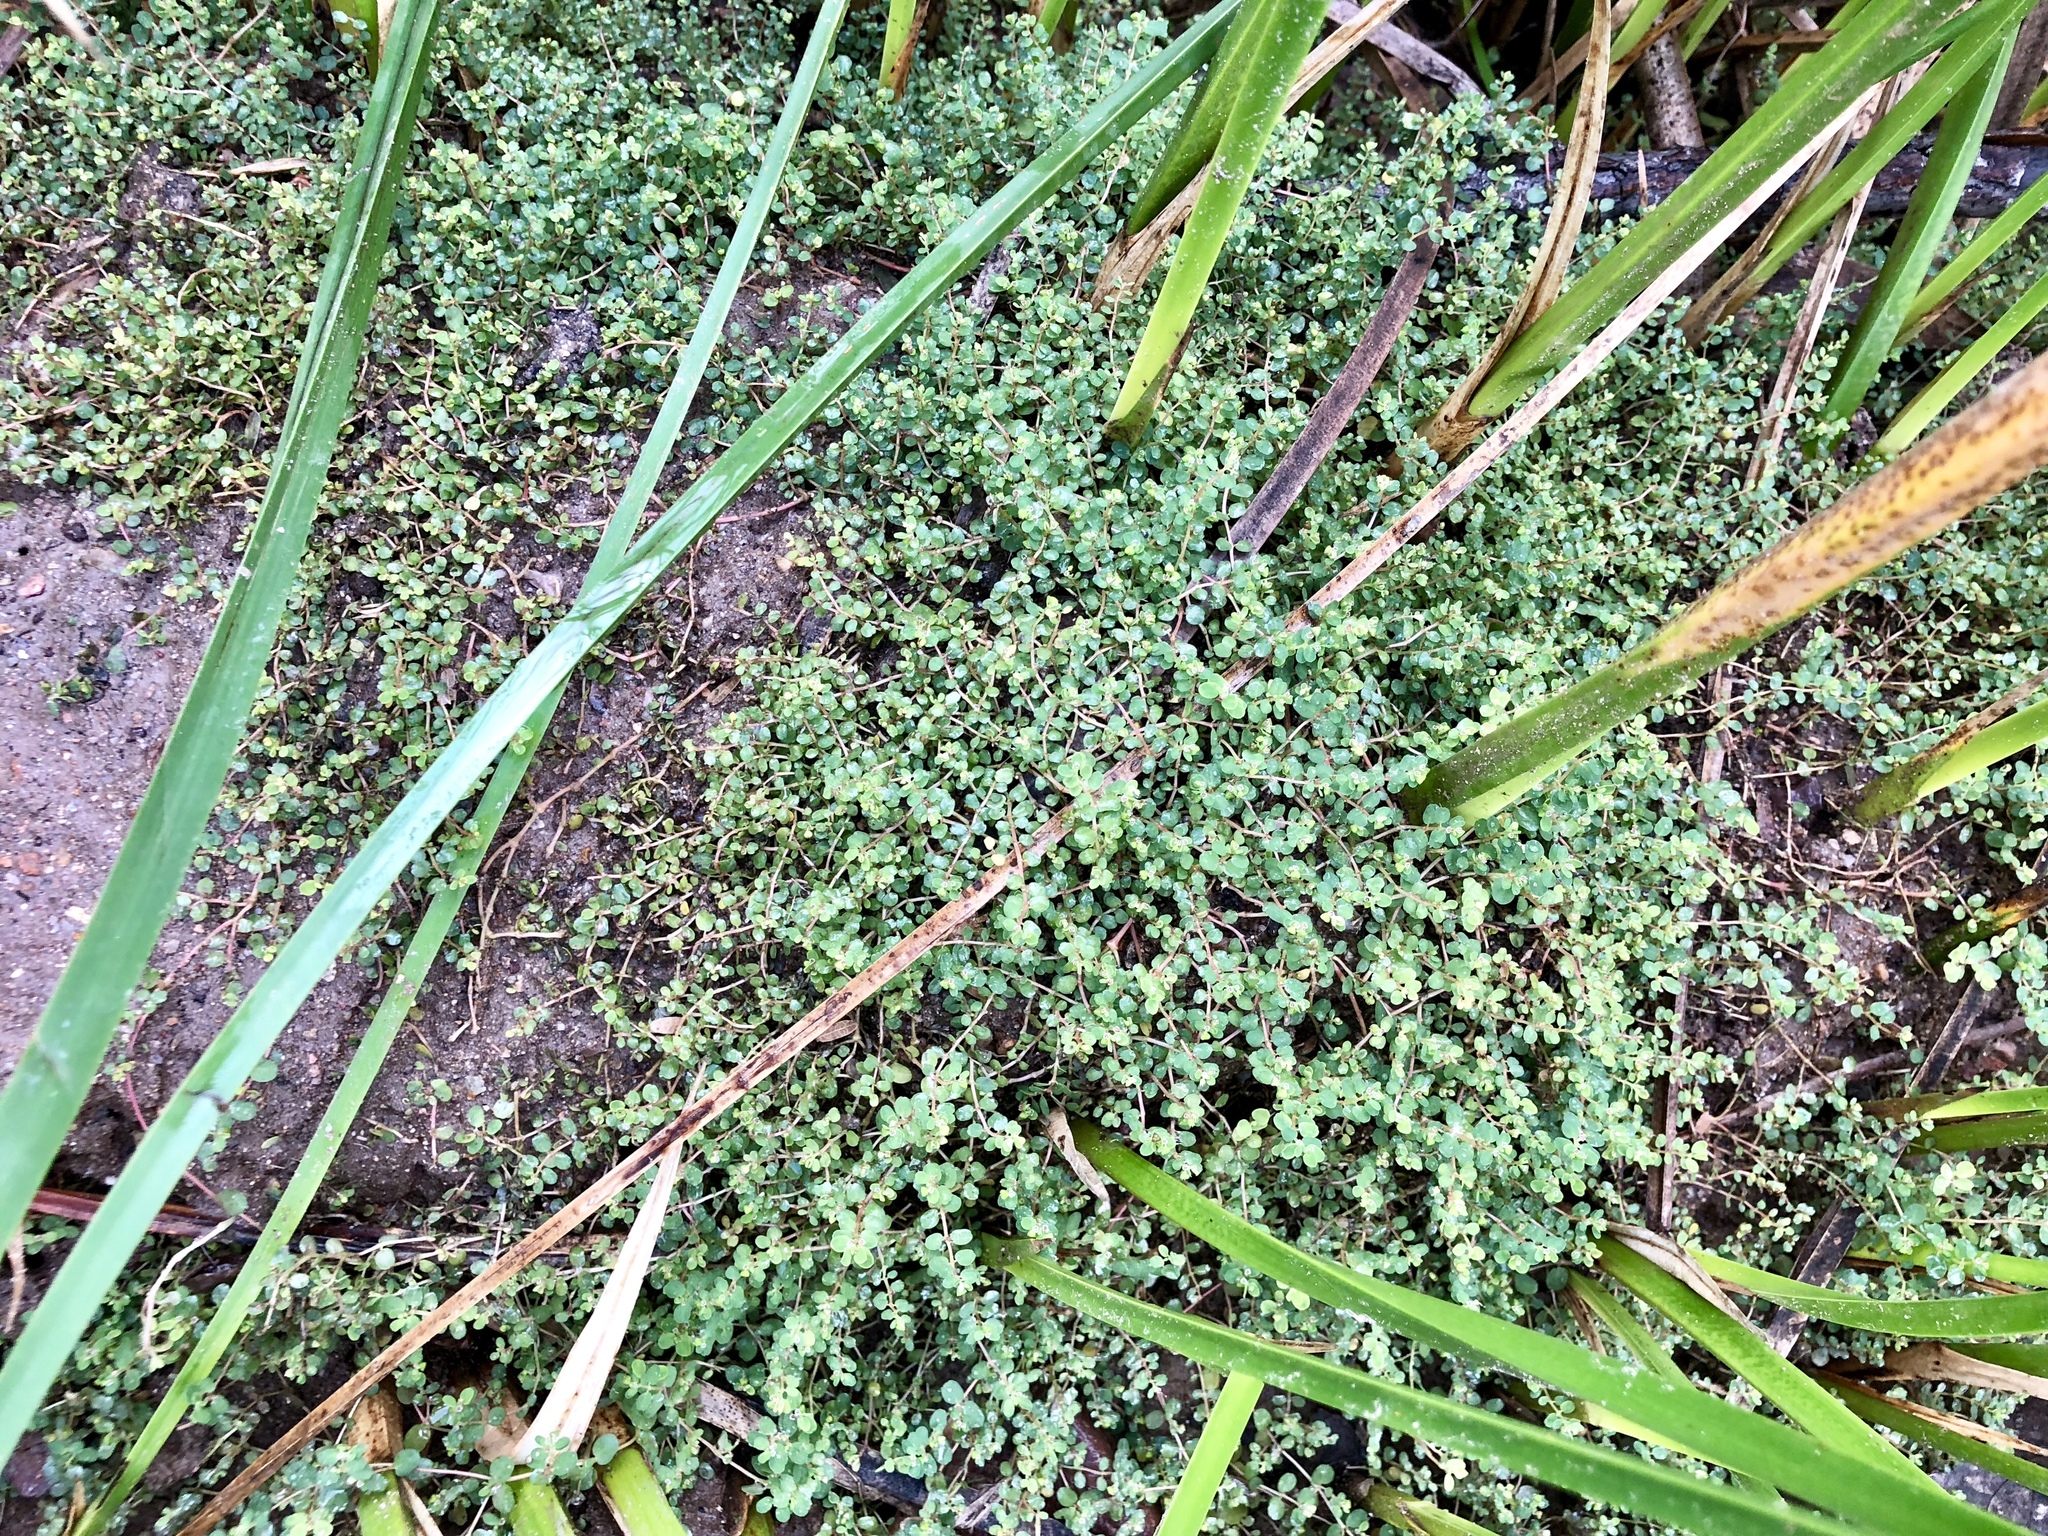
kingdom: Plantae
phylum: Tracheophyta
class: Magnoliopsida
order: Malpighiales
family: Euphorbiaceae
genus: Euphorbia
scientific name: Euphorbia serpens
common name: Matted sandmat
